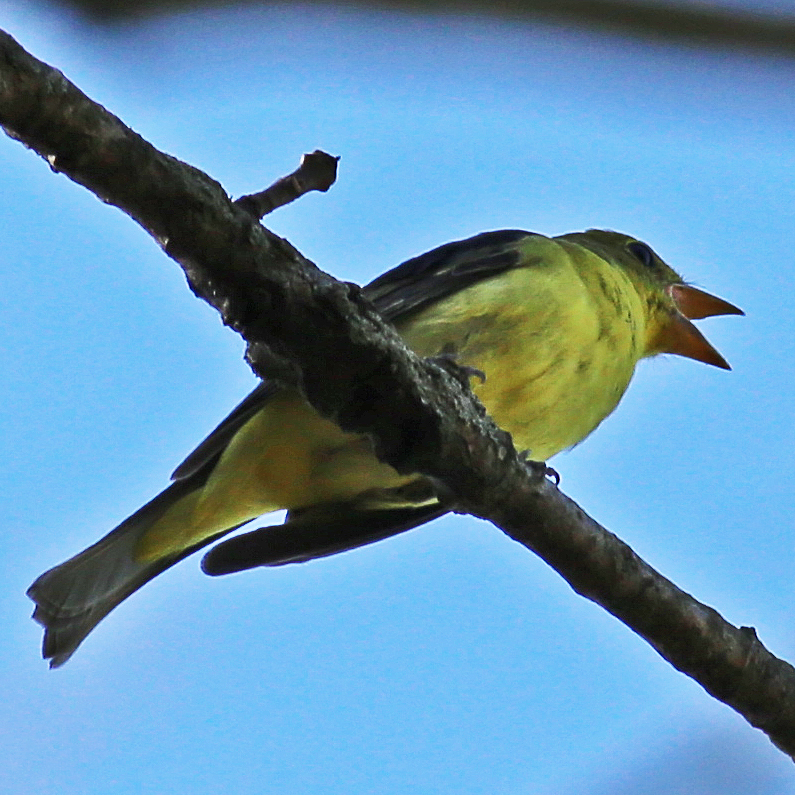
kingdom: Animalia
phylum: Chordata
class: Aves
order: Passeriformes
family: Cardinalidae
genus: Piranga
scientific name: Piranga olivacea
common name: Scarlet tanager
